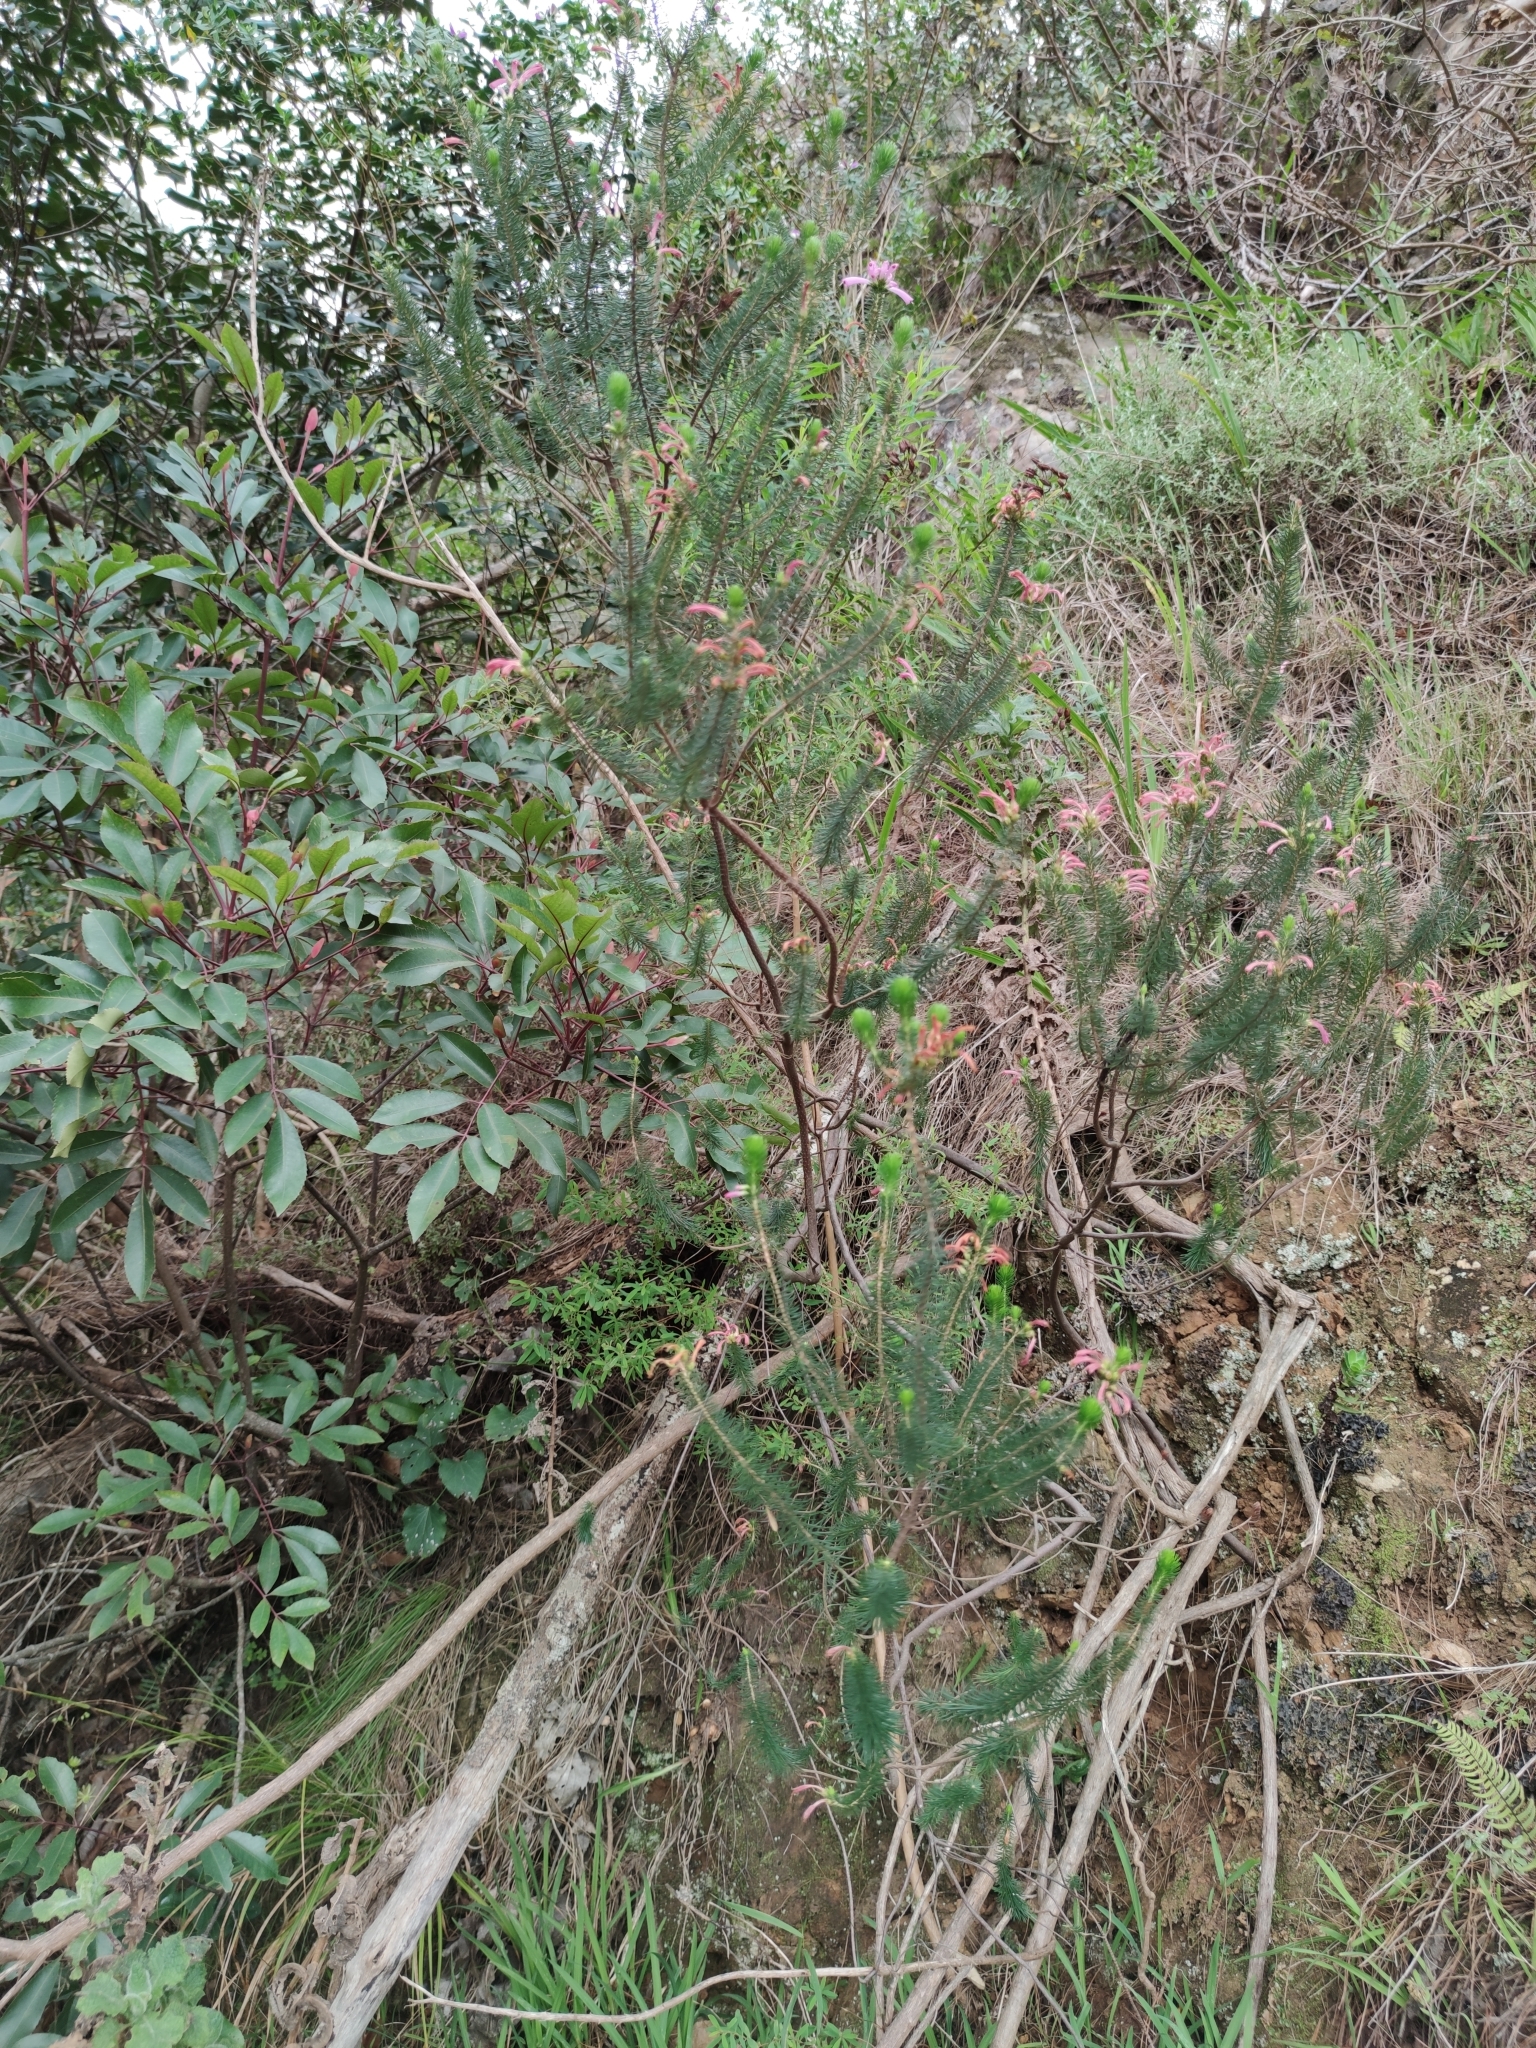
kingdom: Plantae
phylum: Tracheophyta
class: Magnoliopsida
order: Ericales
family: Ericaceae
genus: Erica
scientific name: Erica abietina
